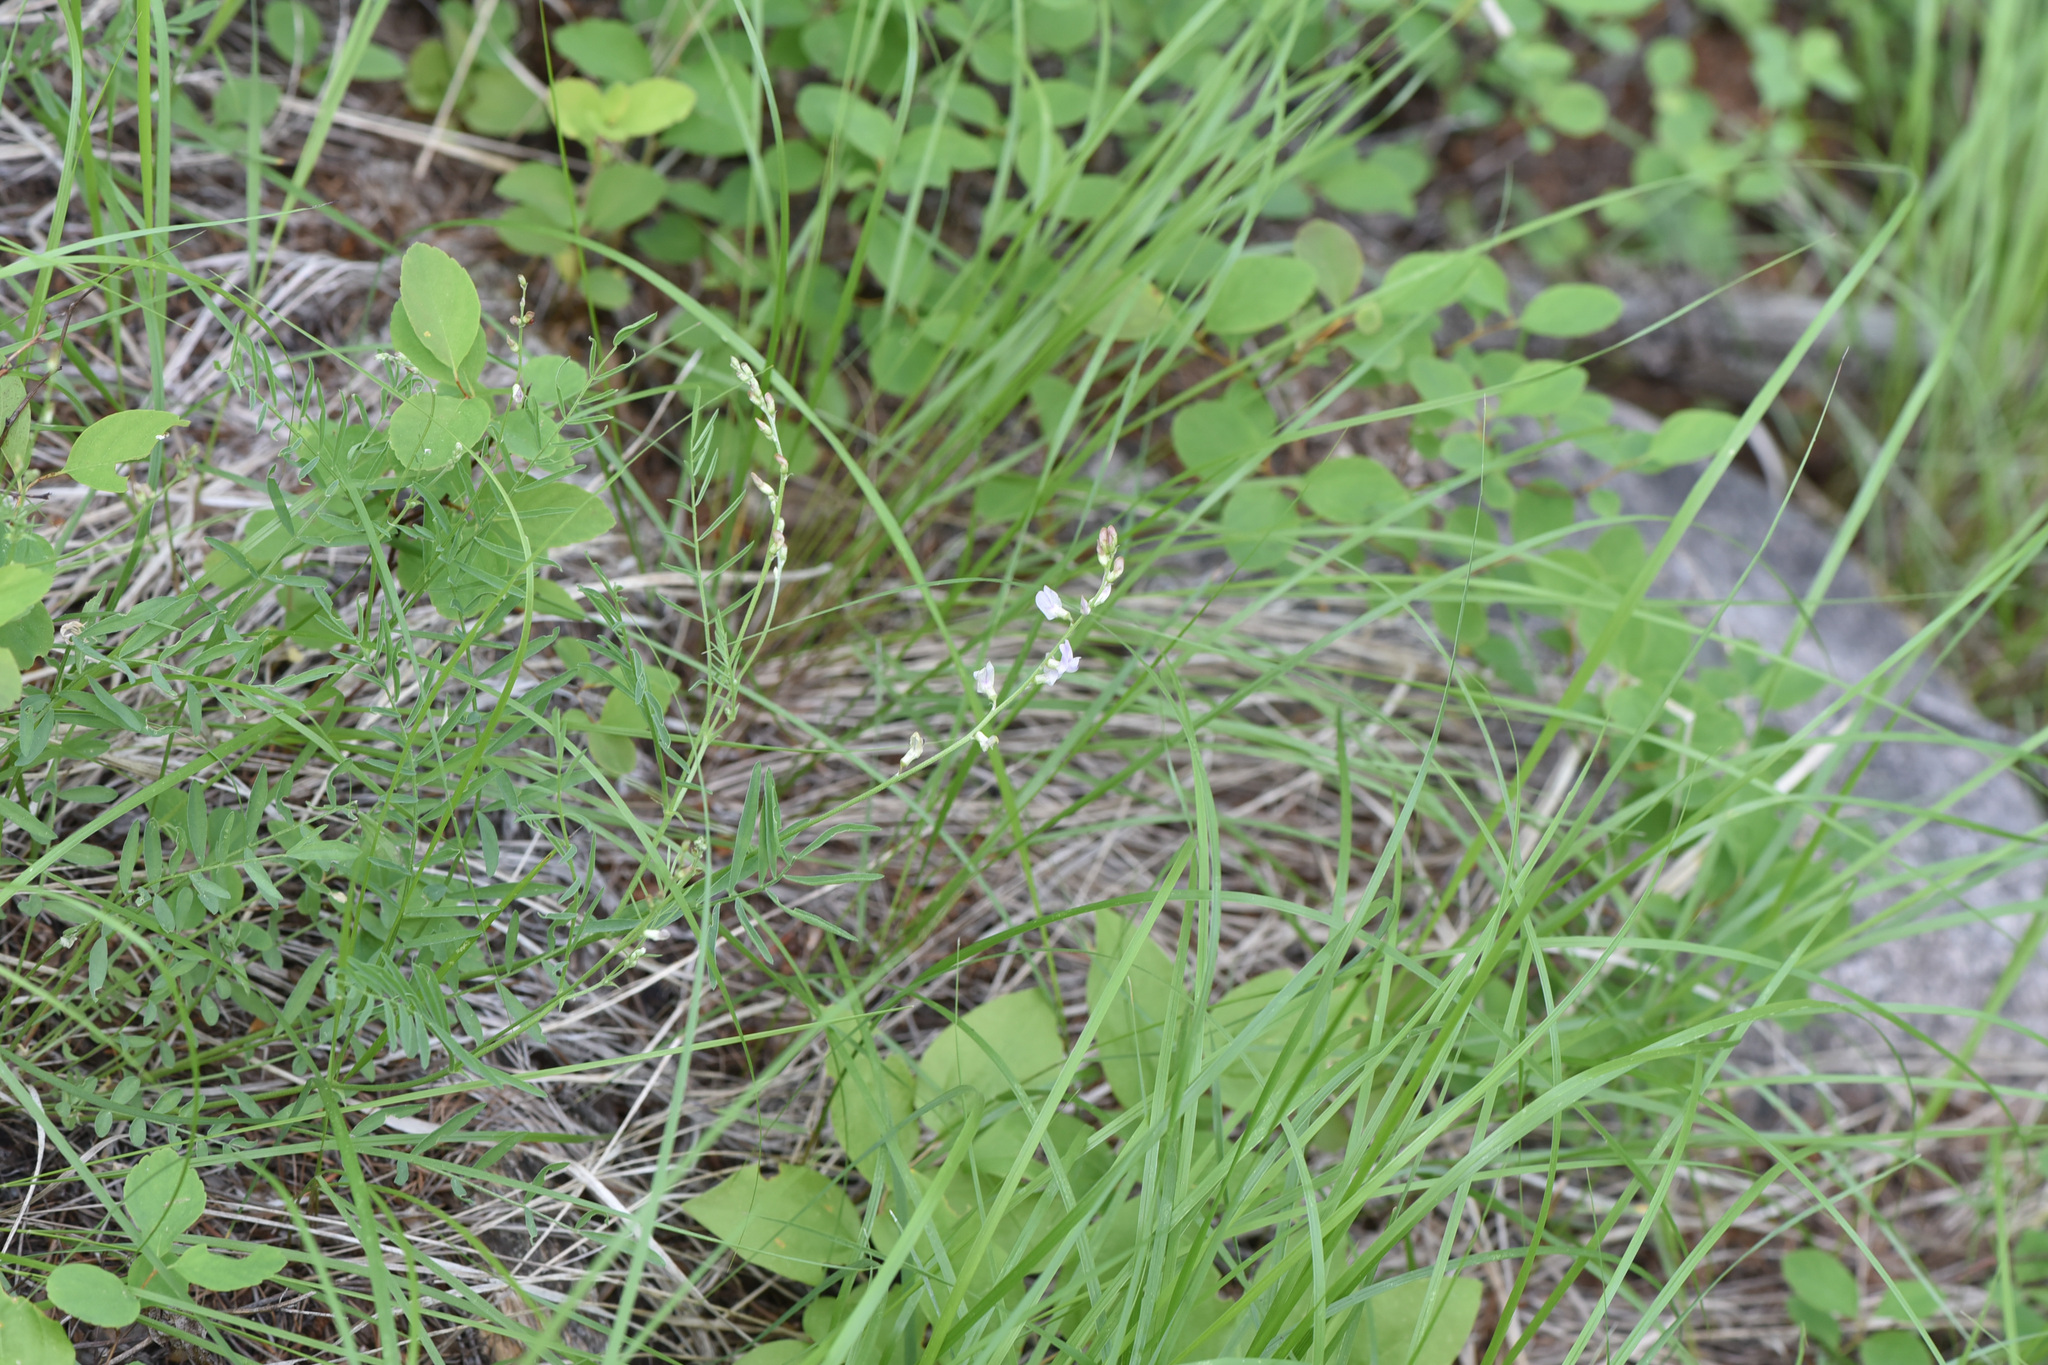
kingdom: Plantae
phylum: Tracheophyta
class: Magnoliopsida
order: Fabales
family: Fabaceae
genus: Astragalus
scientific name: Astragalus miser
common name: Timber milkvetch
